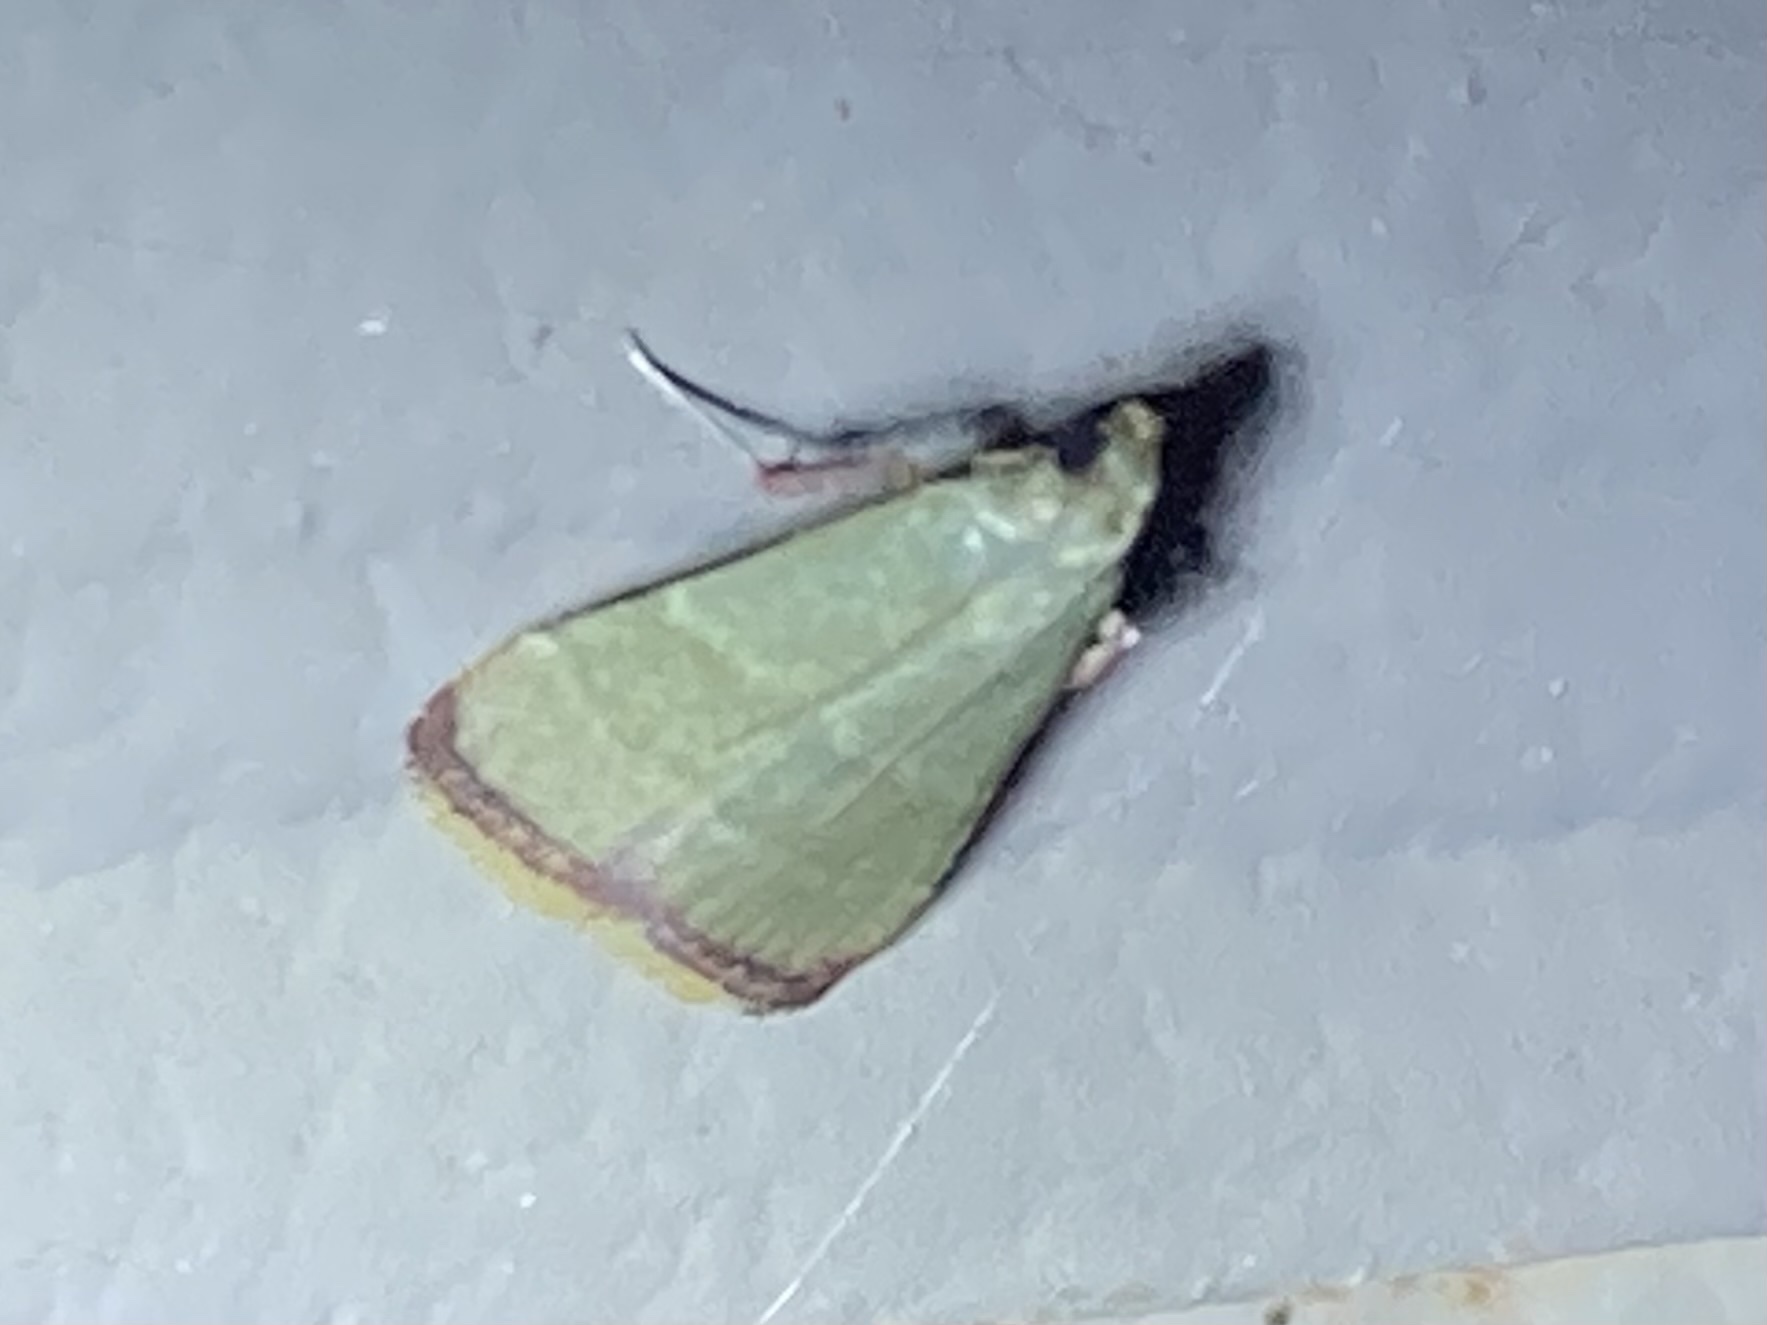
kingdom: Animalia
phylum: Arthropoda
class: Insecta
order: Lepidoptera
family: Pyralidae
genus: Arta
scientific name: Arta olivalis
